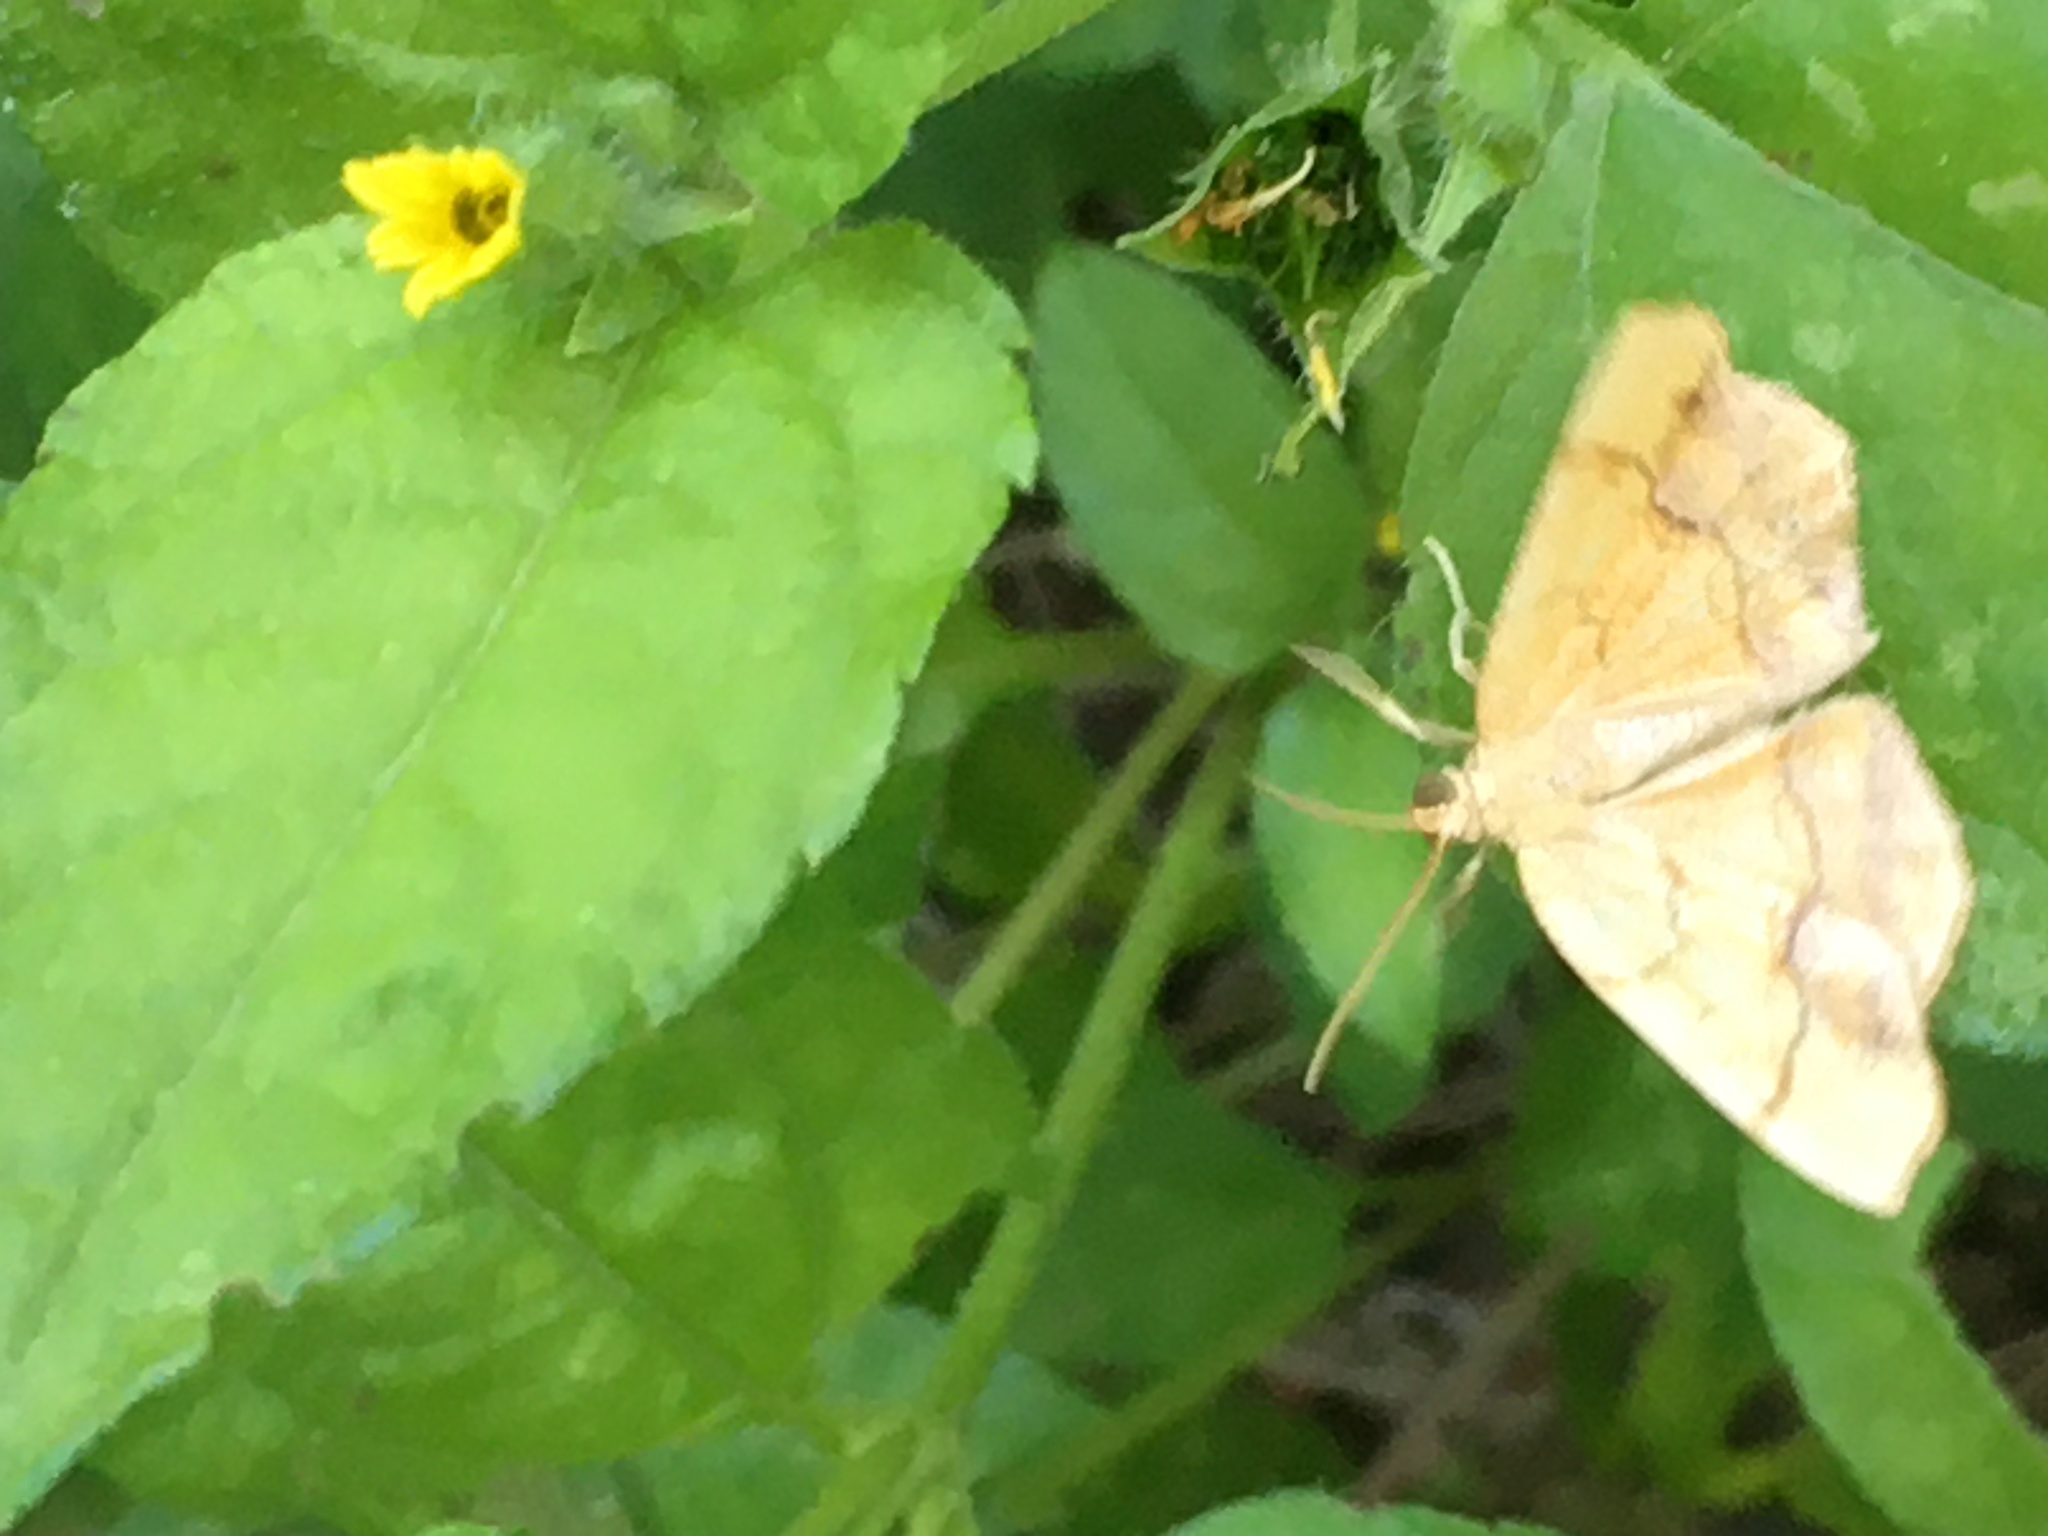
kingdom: Animalia
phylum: Arthropoda
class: Insecta
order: Lepidoptera
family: Geometridae
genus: Nematocampa
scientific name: Nematocampa resistaria
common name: Horned spanworm moth
